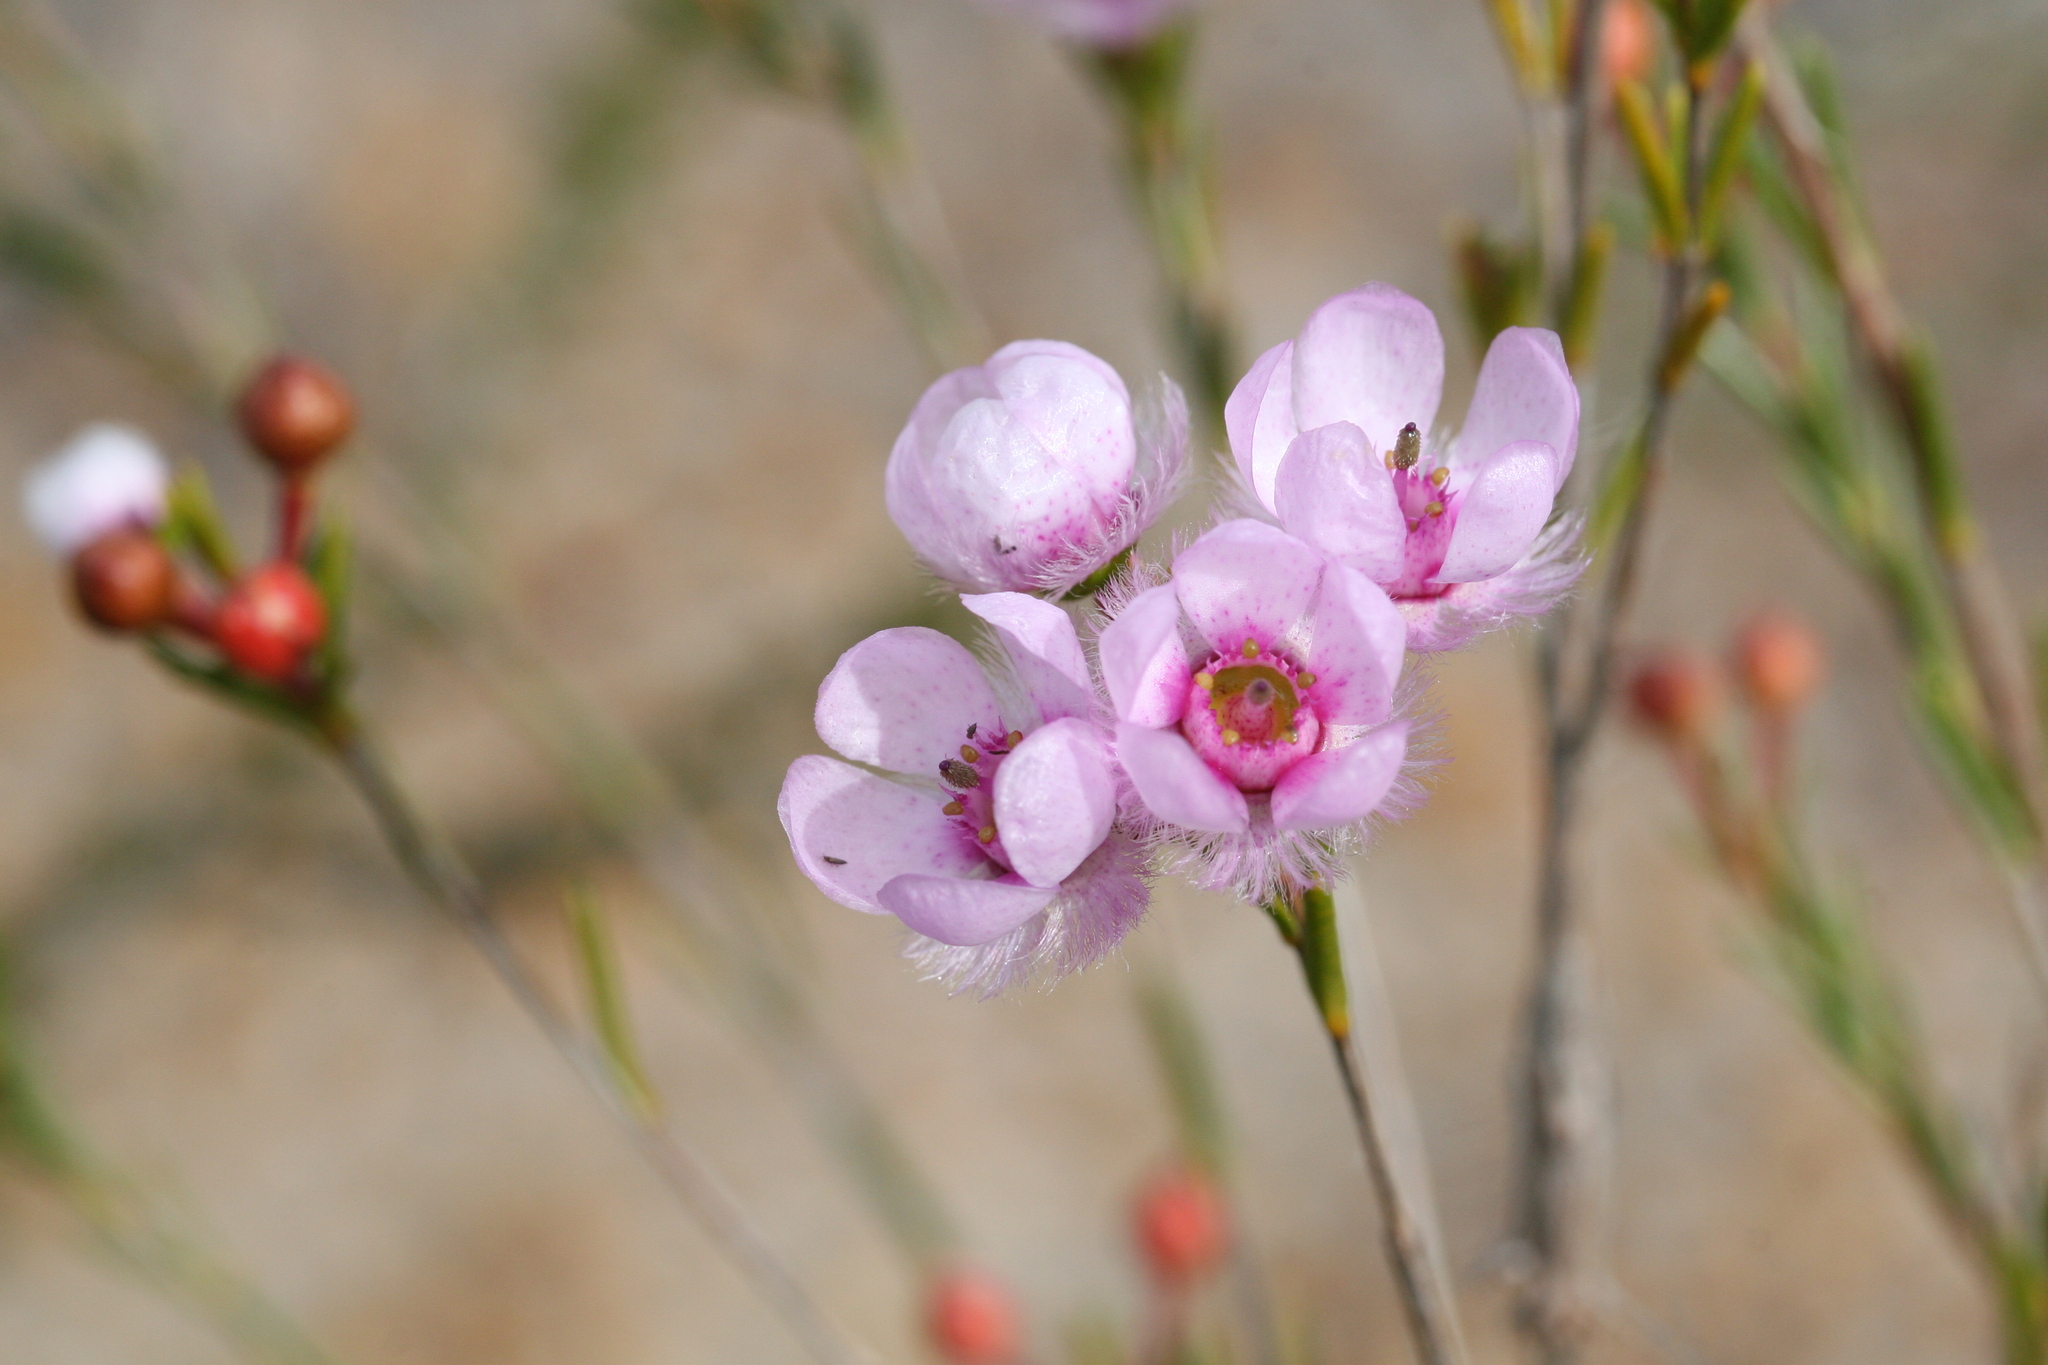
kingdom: Plantae
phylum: Tracheophyta
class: Magnoliopsida
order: Myrtales
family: Myrtaceae
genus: Verticordia
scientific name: Verticordia picta
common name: Painted feather-flower
